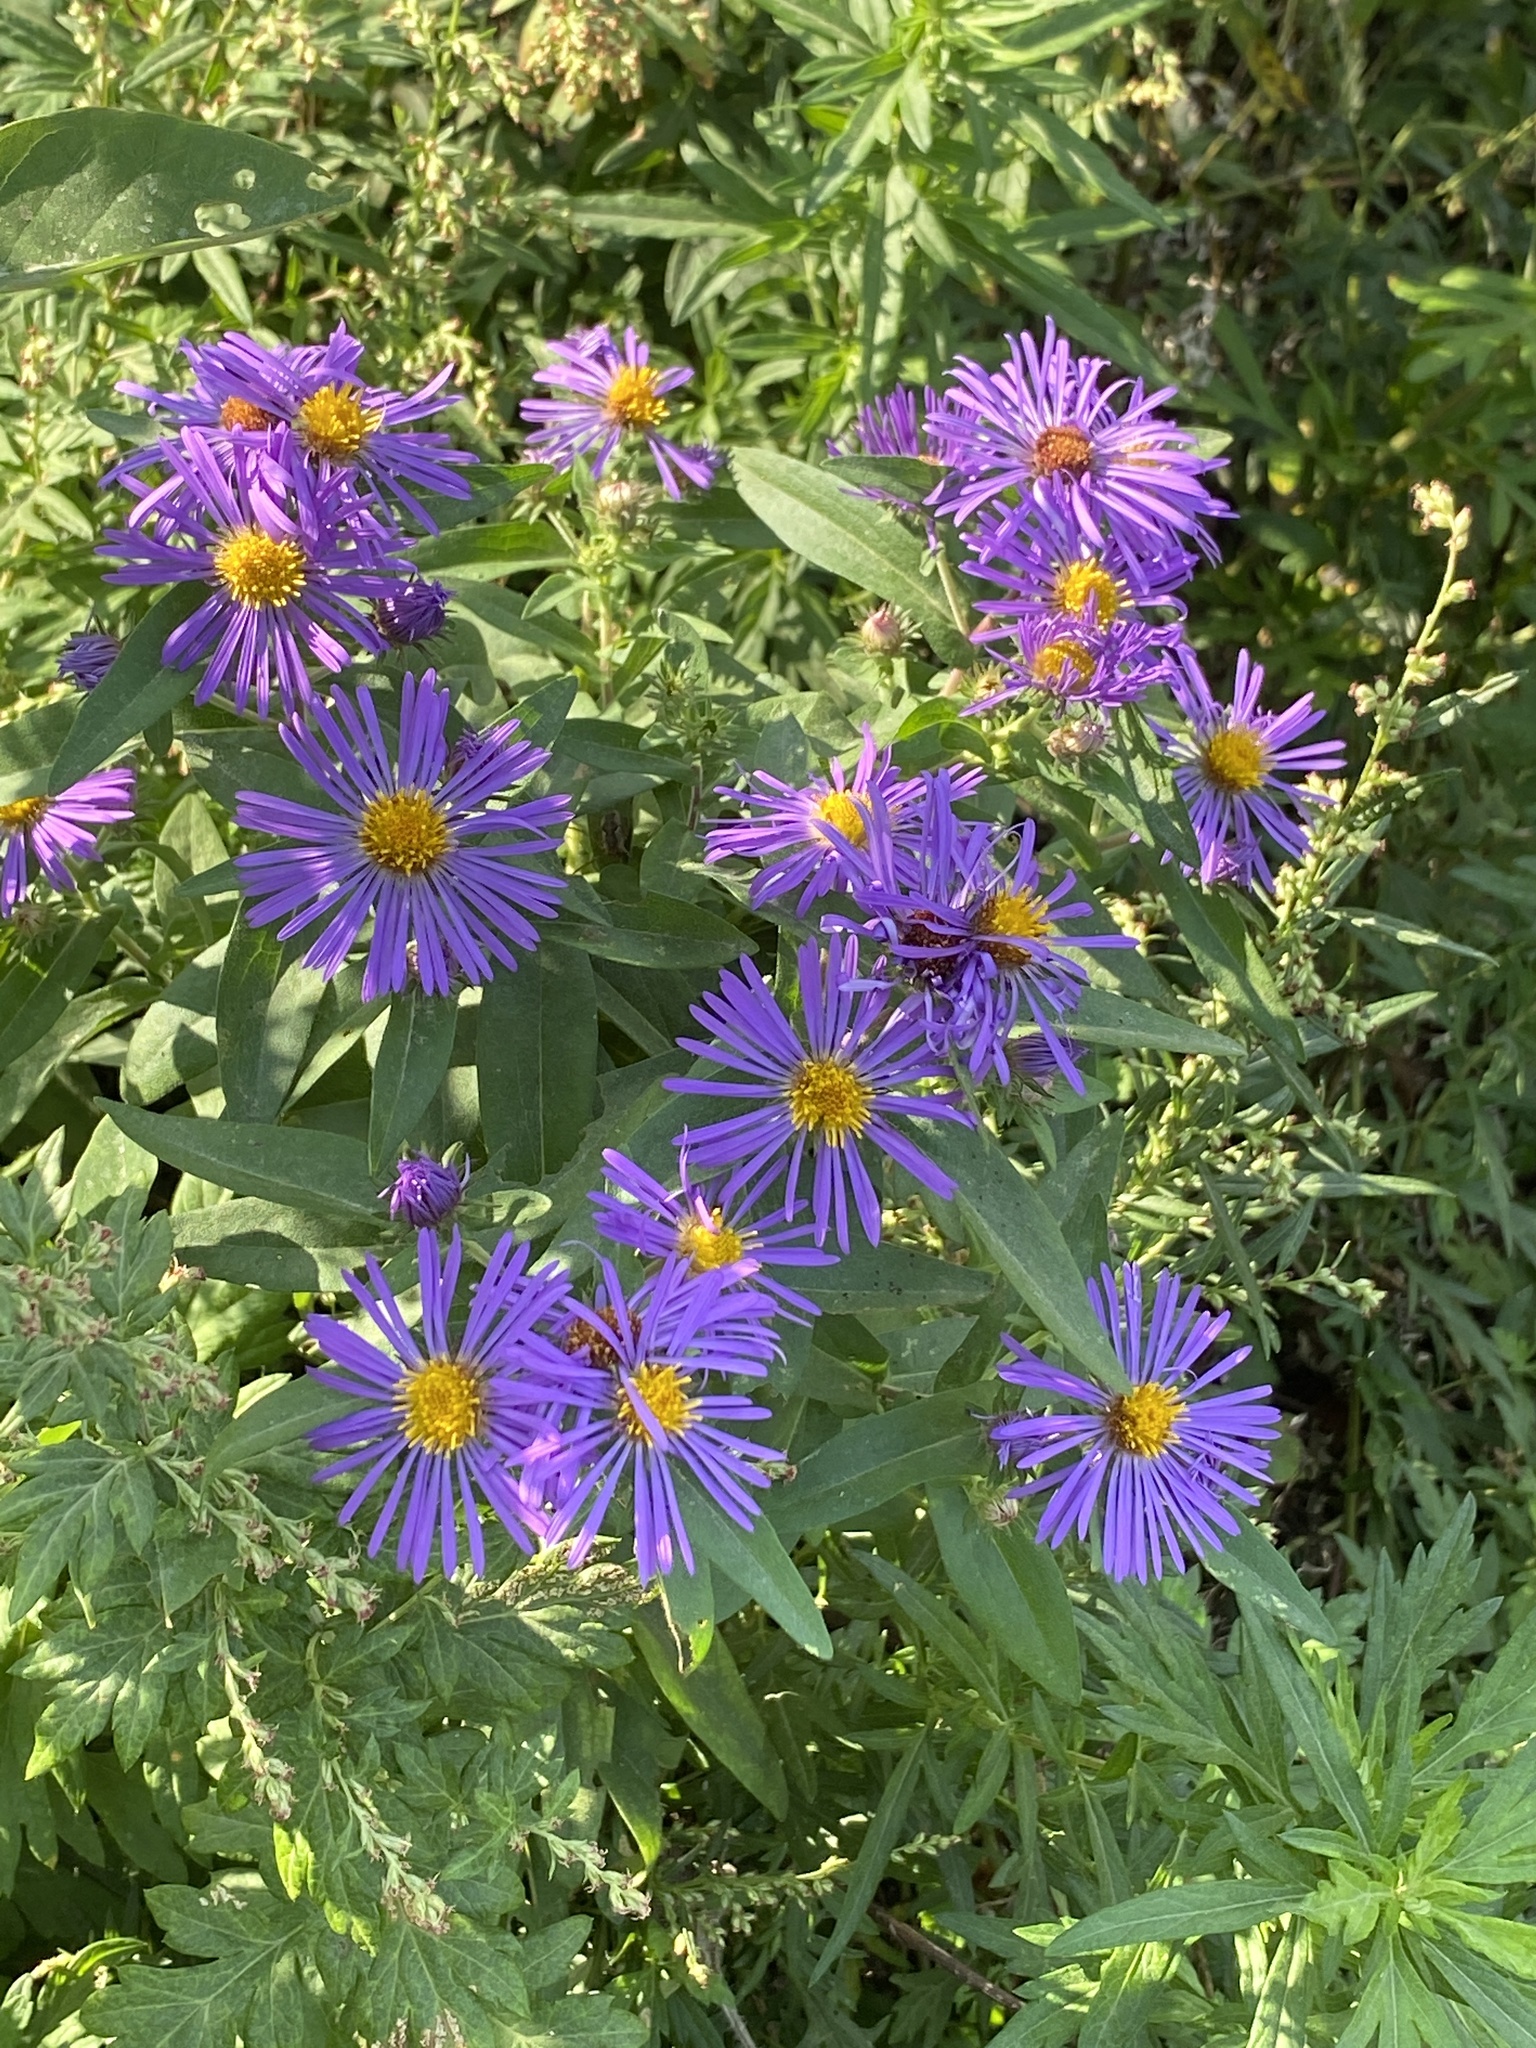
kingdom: Plantae
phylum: Tracheophyta
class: Magnoliopsida
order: Asterales
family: Asteraceae
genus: Symphyotrichum
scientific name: Symphyotrichum novae-angliae
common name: Michaelmas daisy
